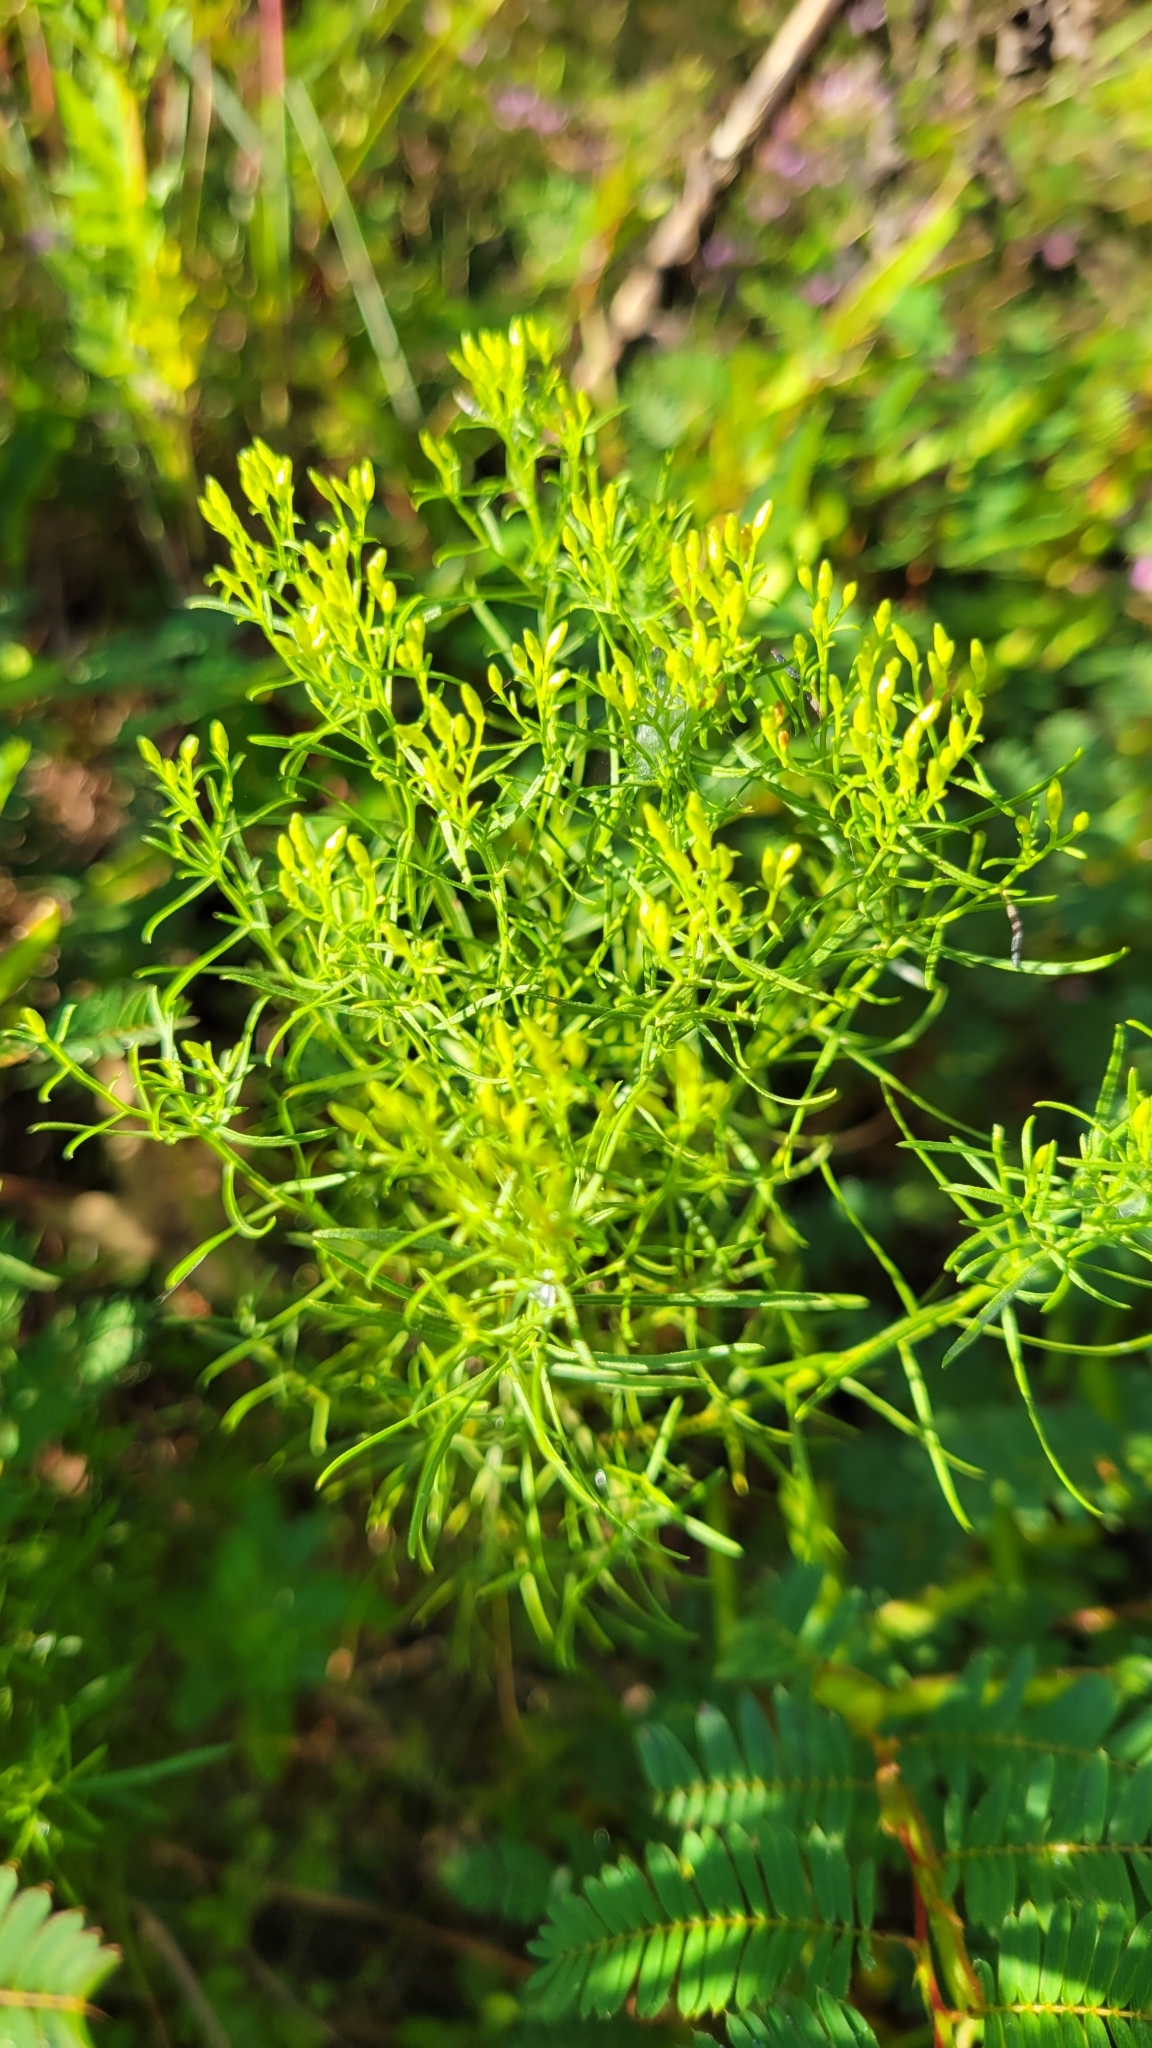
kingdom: Plantae
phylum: Tracheophyta
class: Magnoliopsida
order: Asterales
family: Asteraceae
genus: Euthamia
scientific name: Euthamia caroliniana
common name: Coastal plain goldentop
